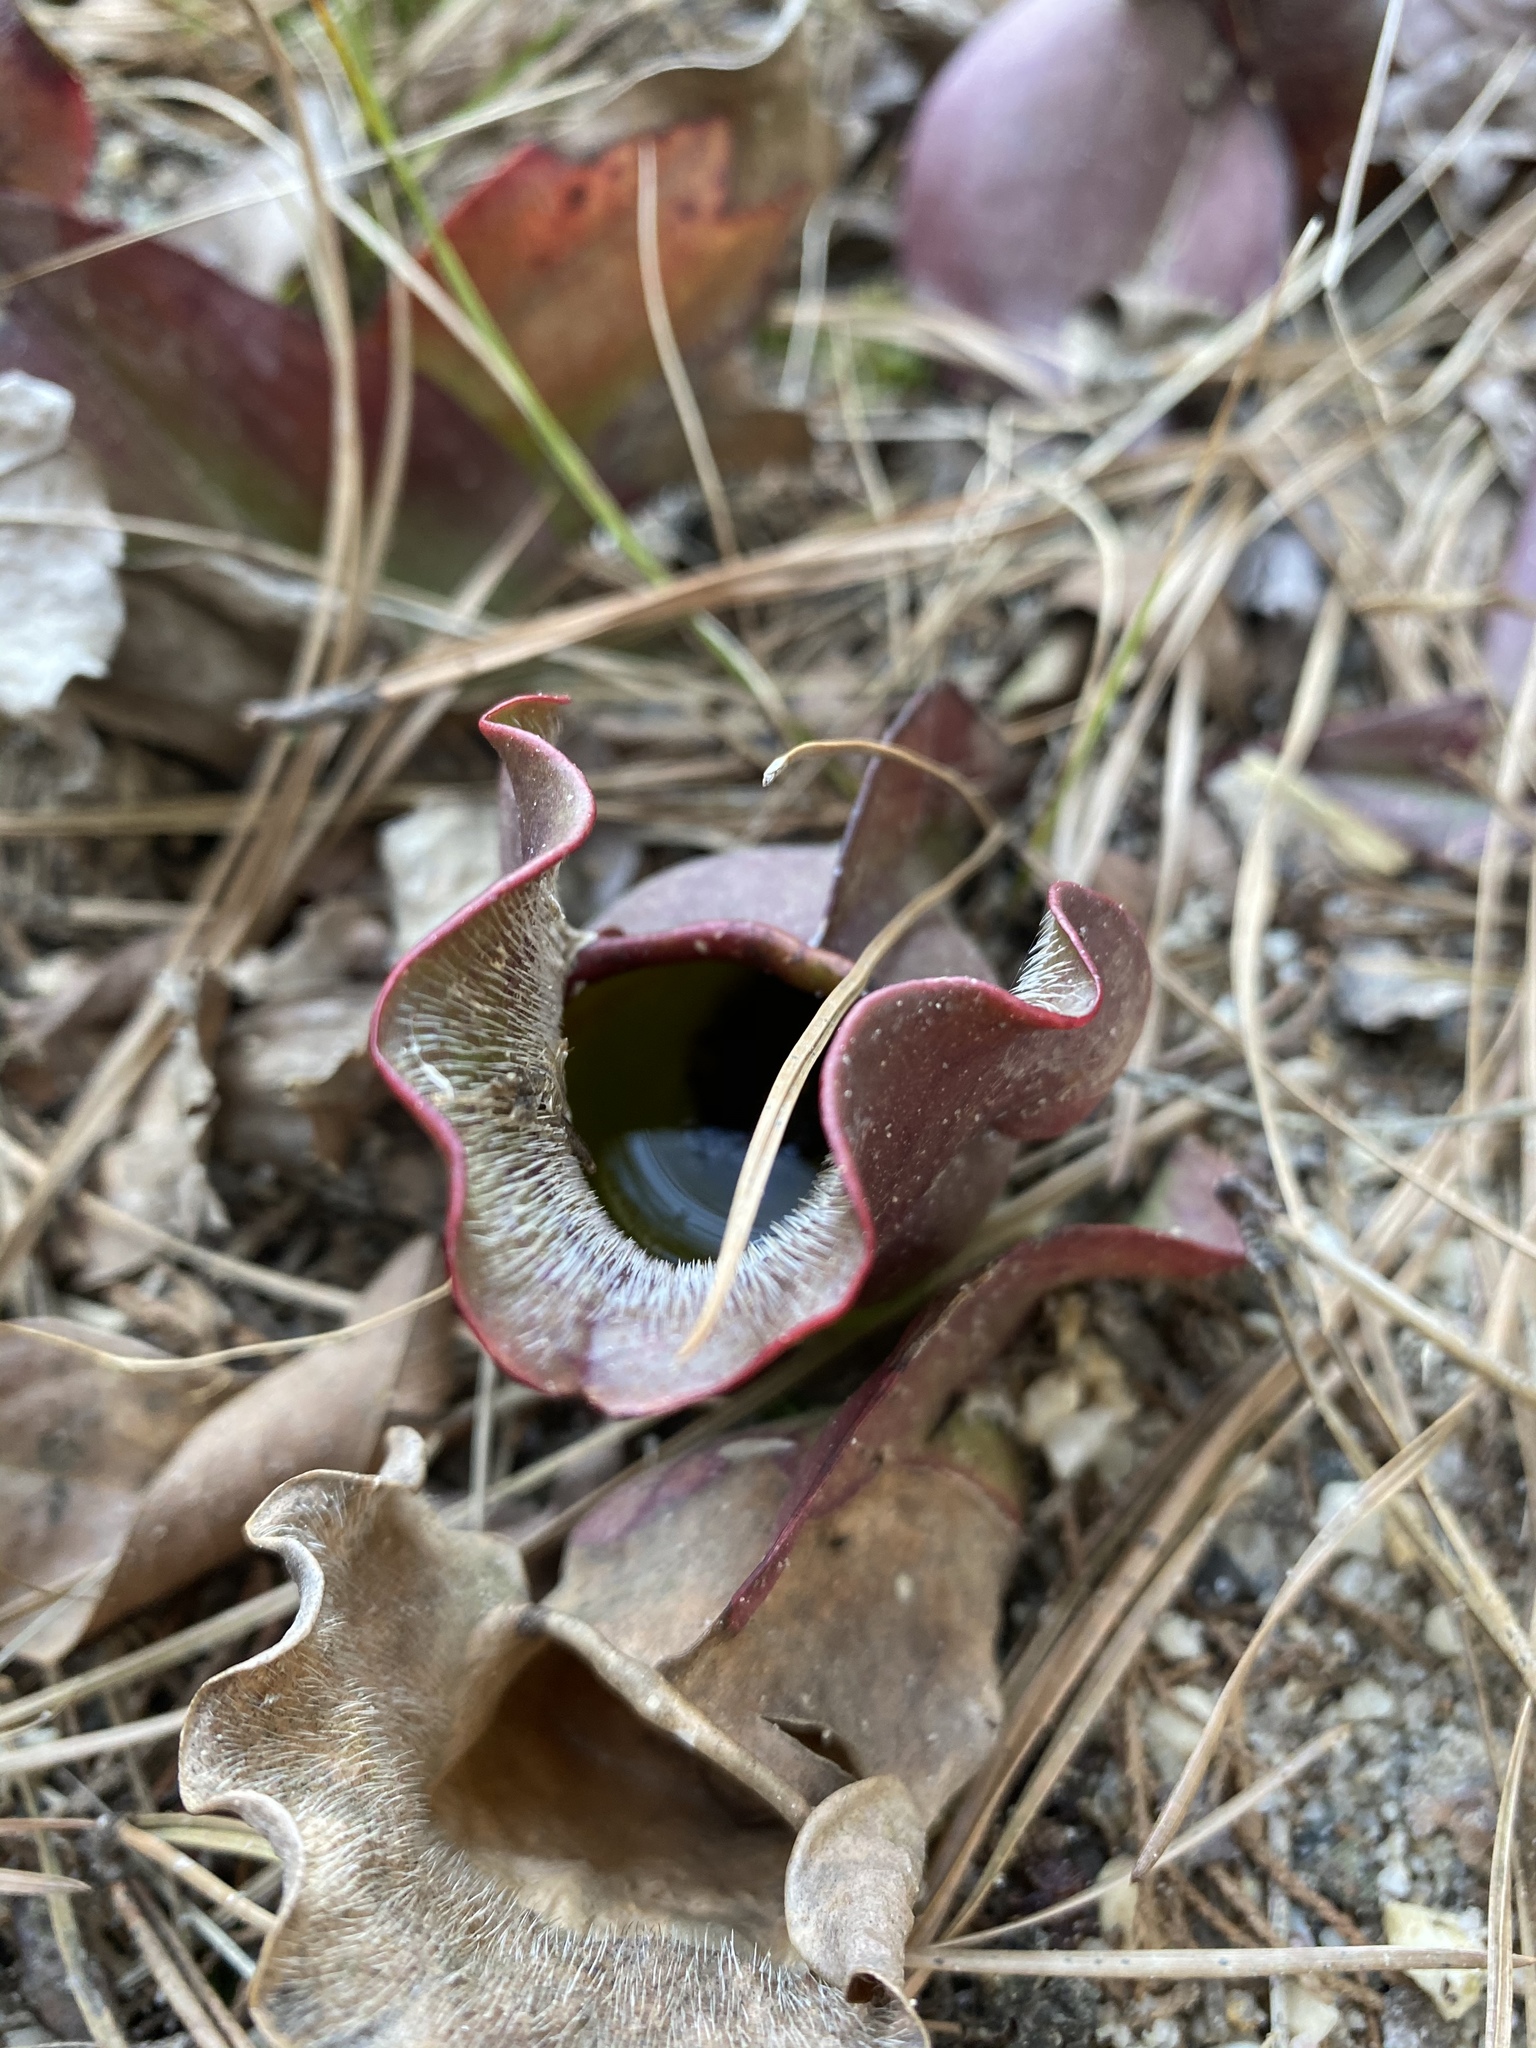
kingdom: Plantae
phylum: Tracheophyta
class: Magnoliopsida
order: Ericales
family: Sarraceniaceae
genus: Sarracenia
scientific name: Sarracenia purpurea
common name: Pitcherplant
